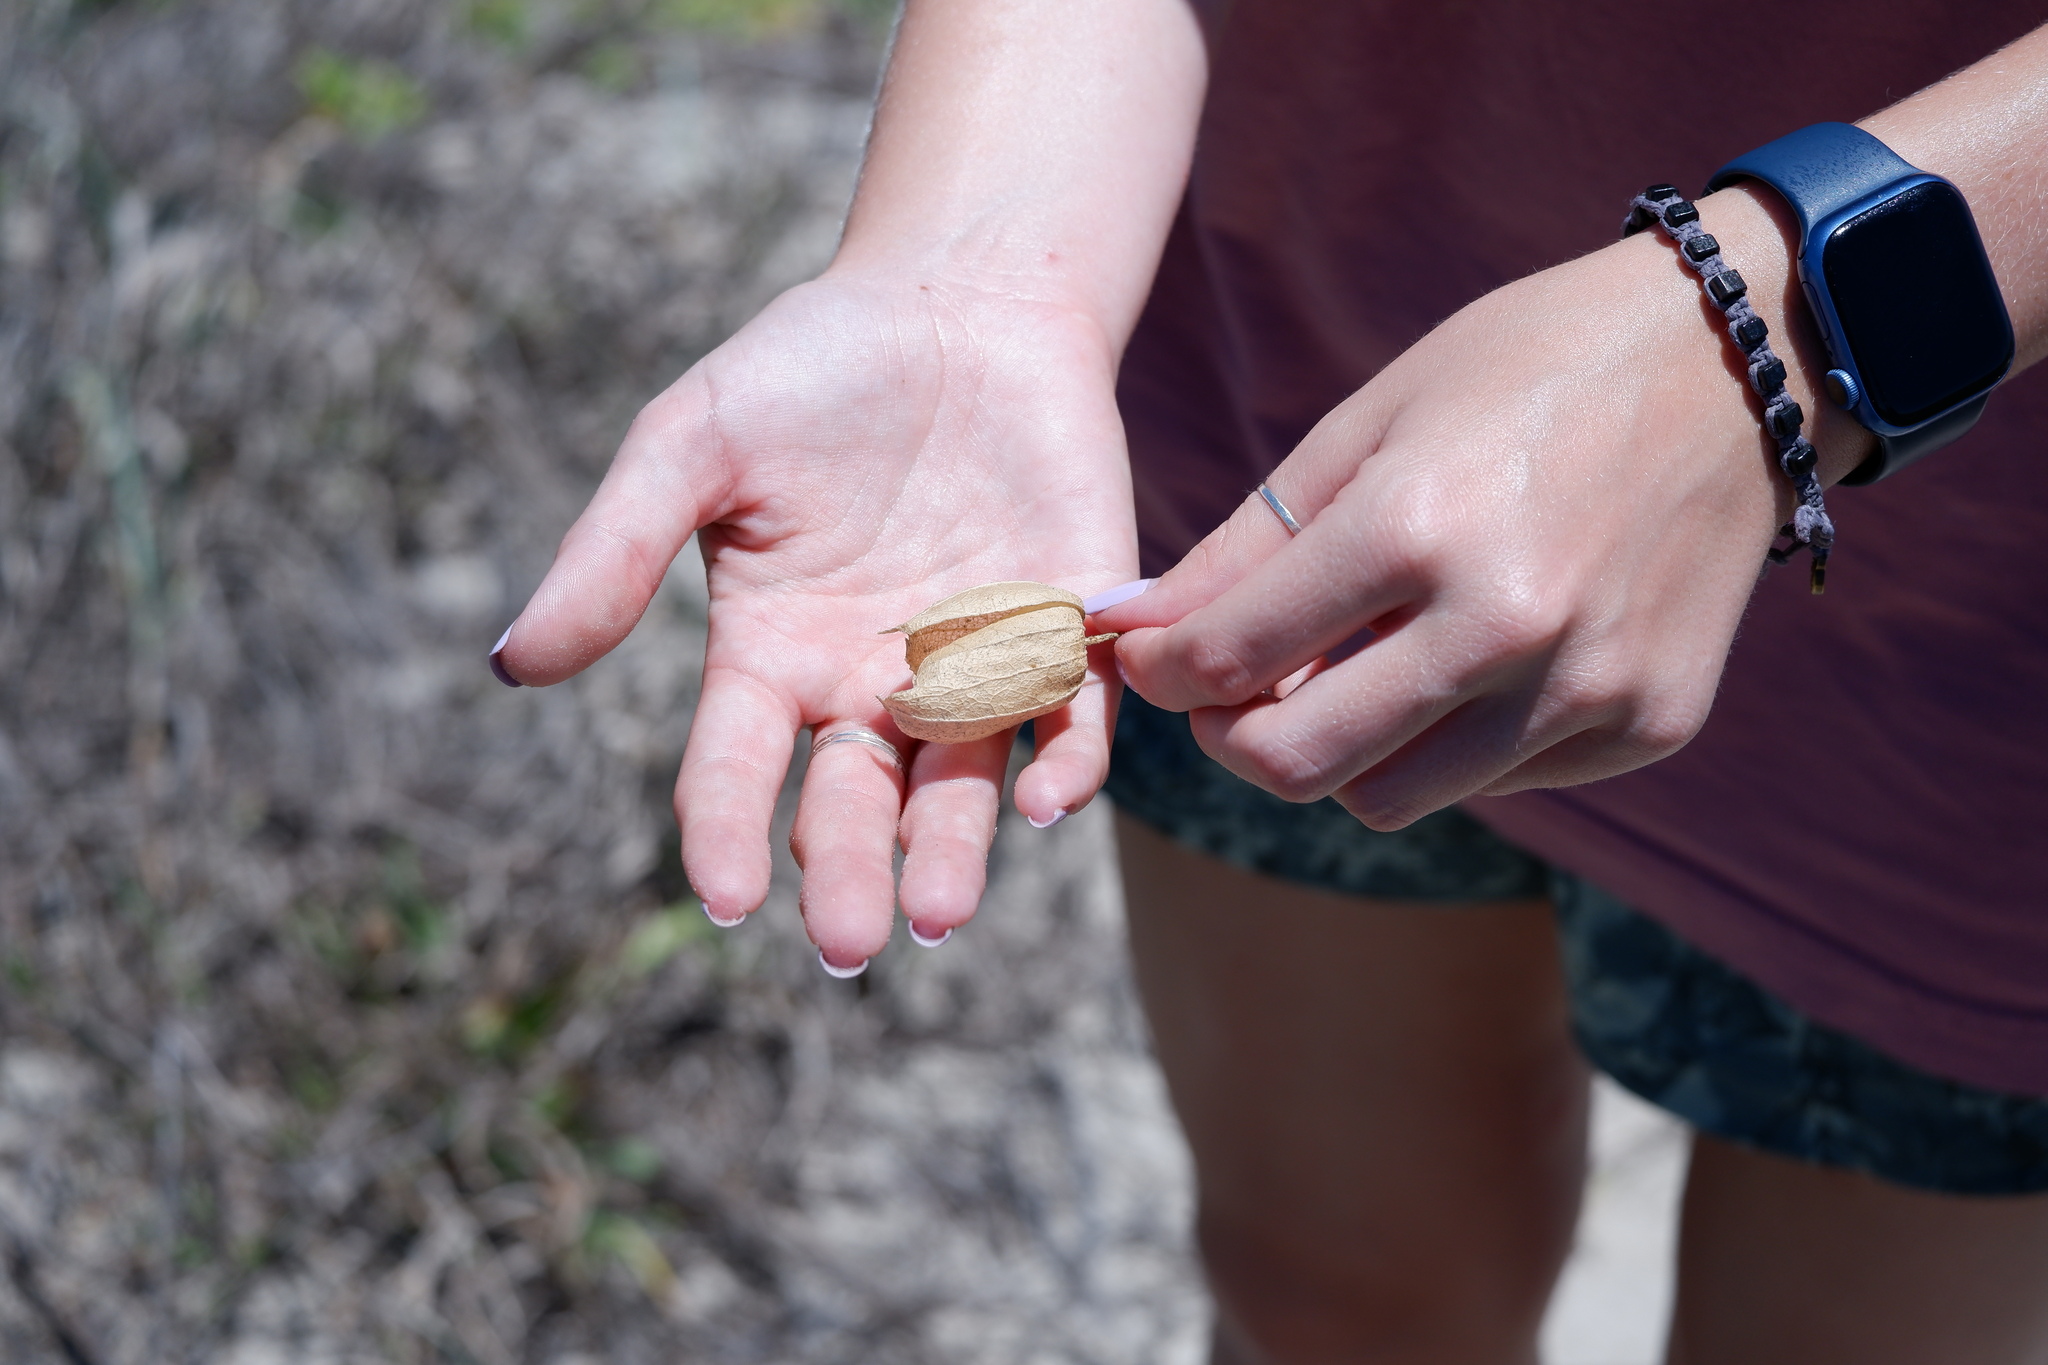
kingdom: Plantae
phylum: Tracheophyta
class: Magnoliopsida
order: Solanales
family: Solanaceae
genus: Physalis
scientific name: Physalis cinerascens
